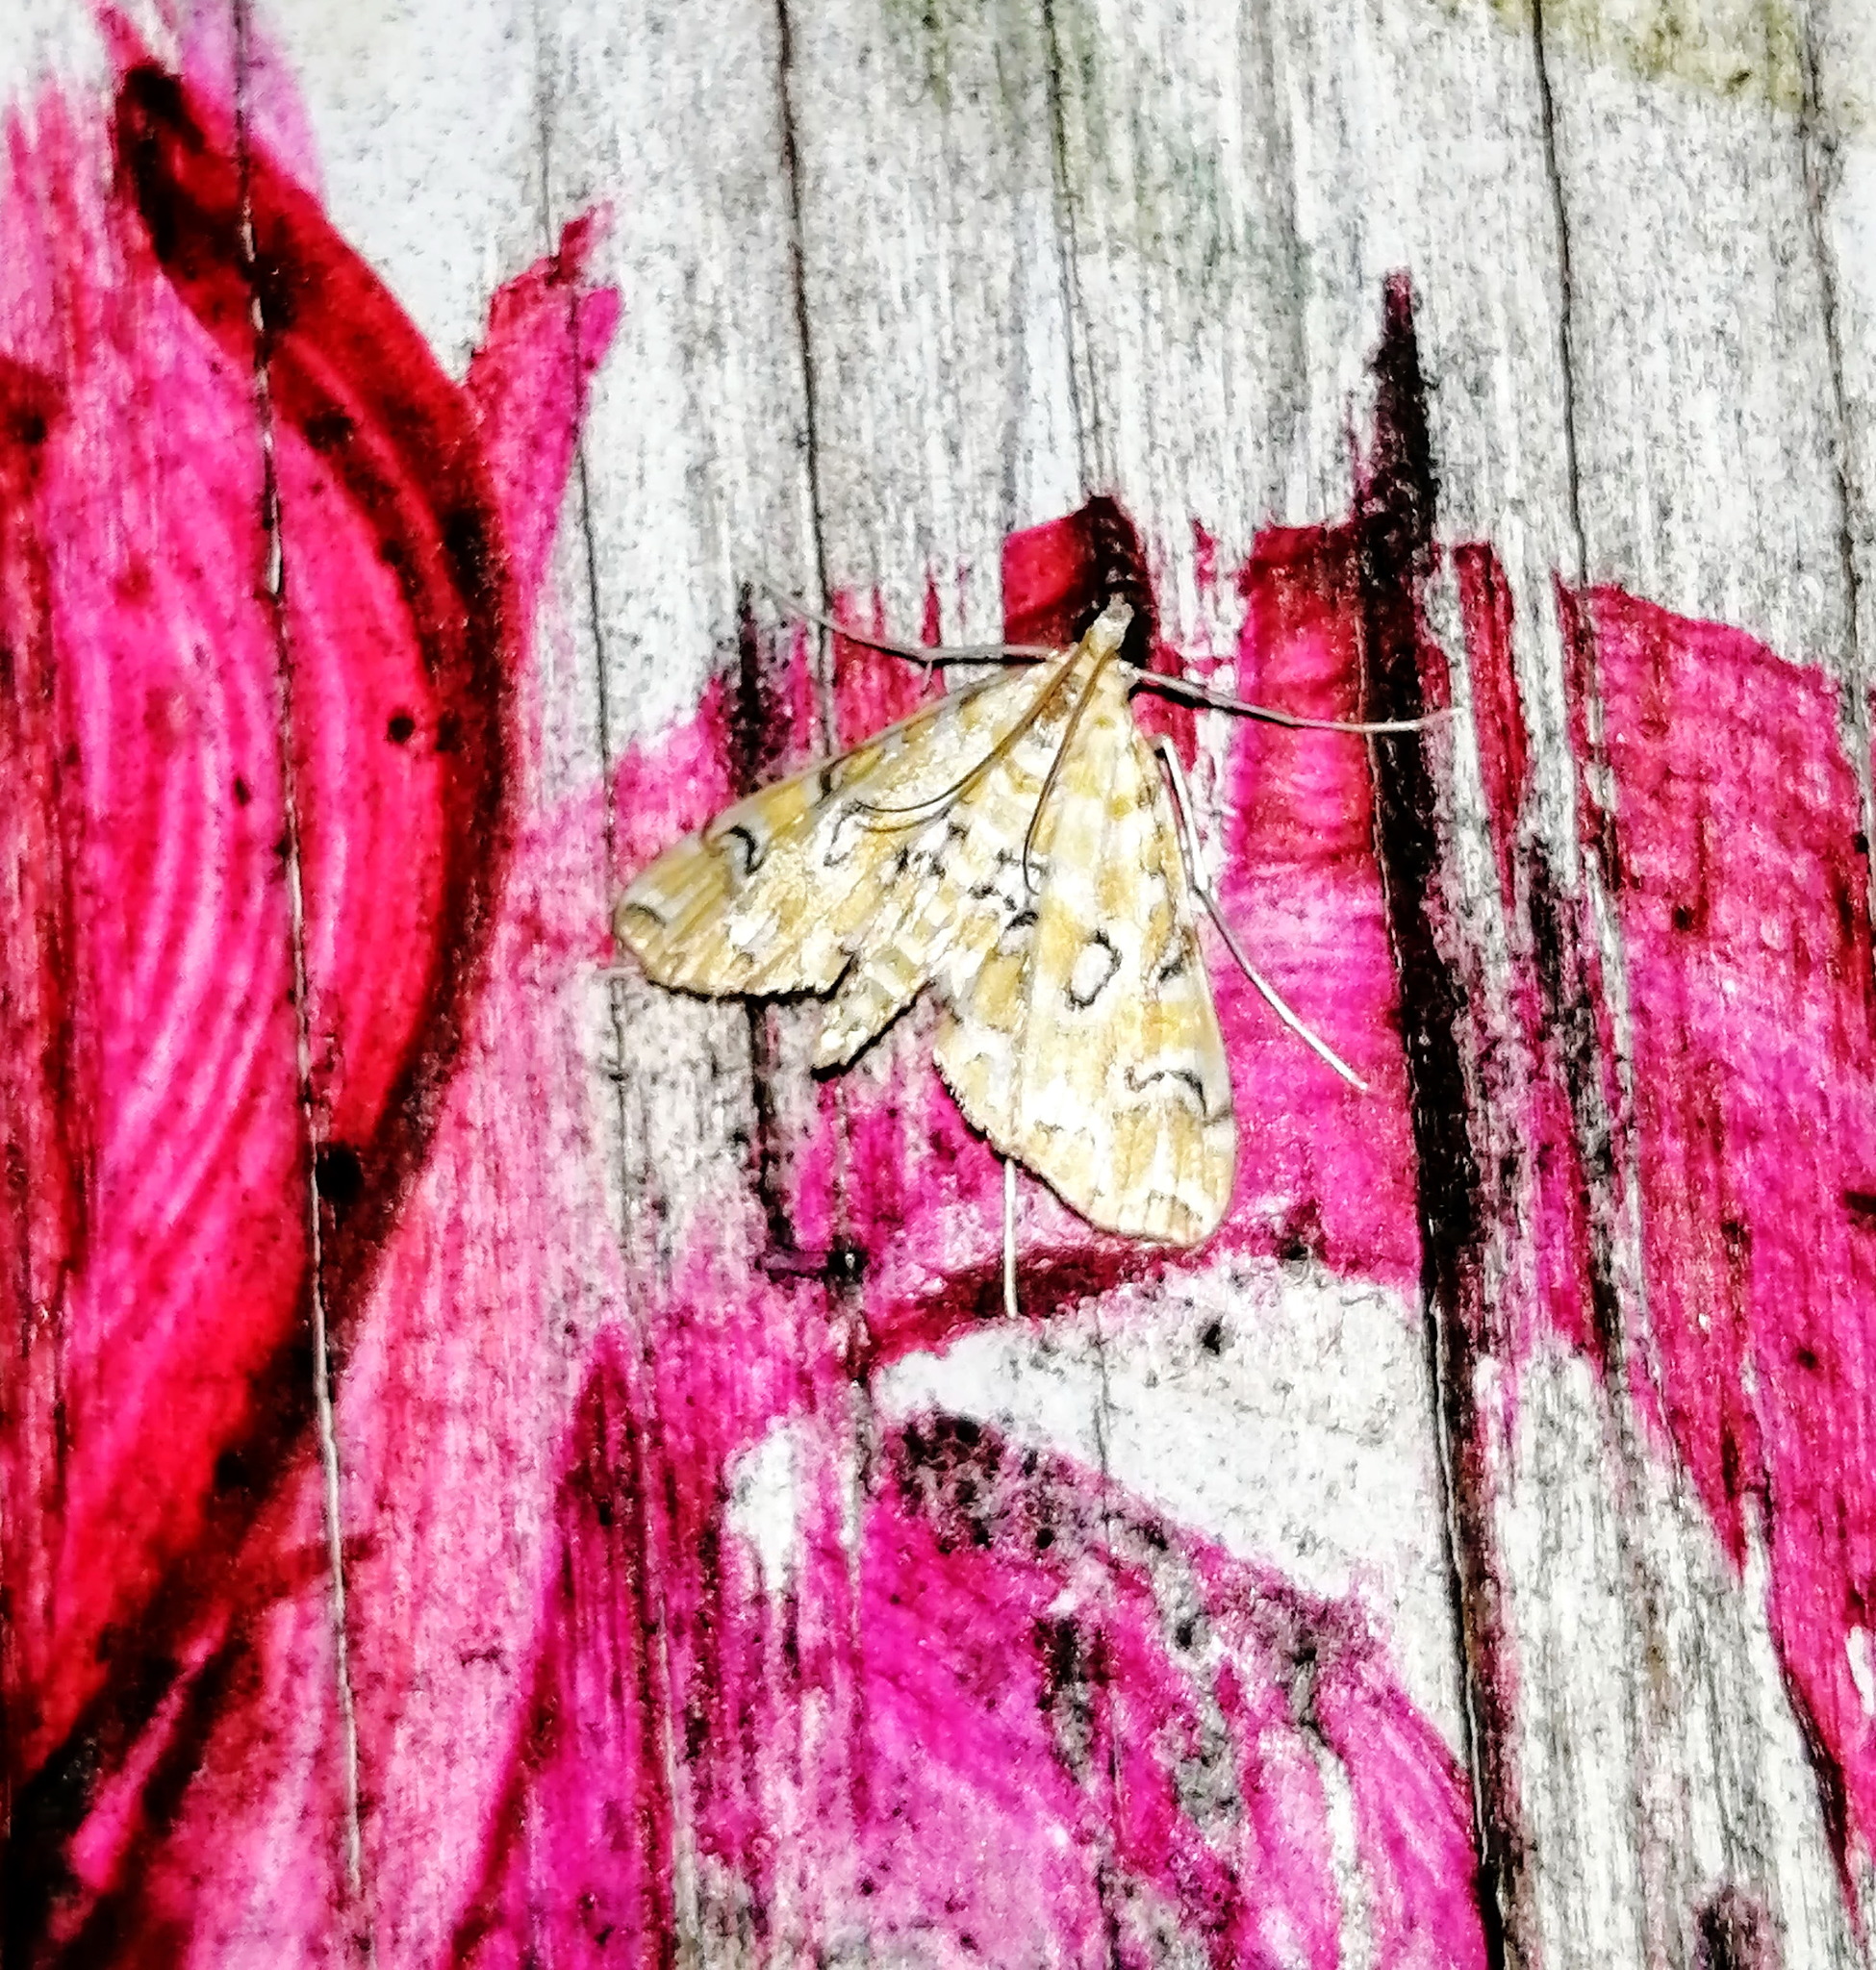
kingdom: Animalia
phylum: Arthropoda
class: Insecta
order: Lepidoptera
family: Crambidae
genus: Elophila
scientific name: Elophila icciusalis
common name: Pondside pyralid moth
